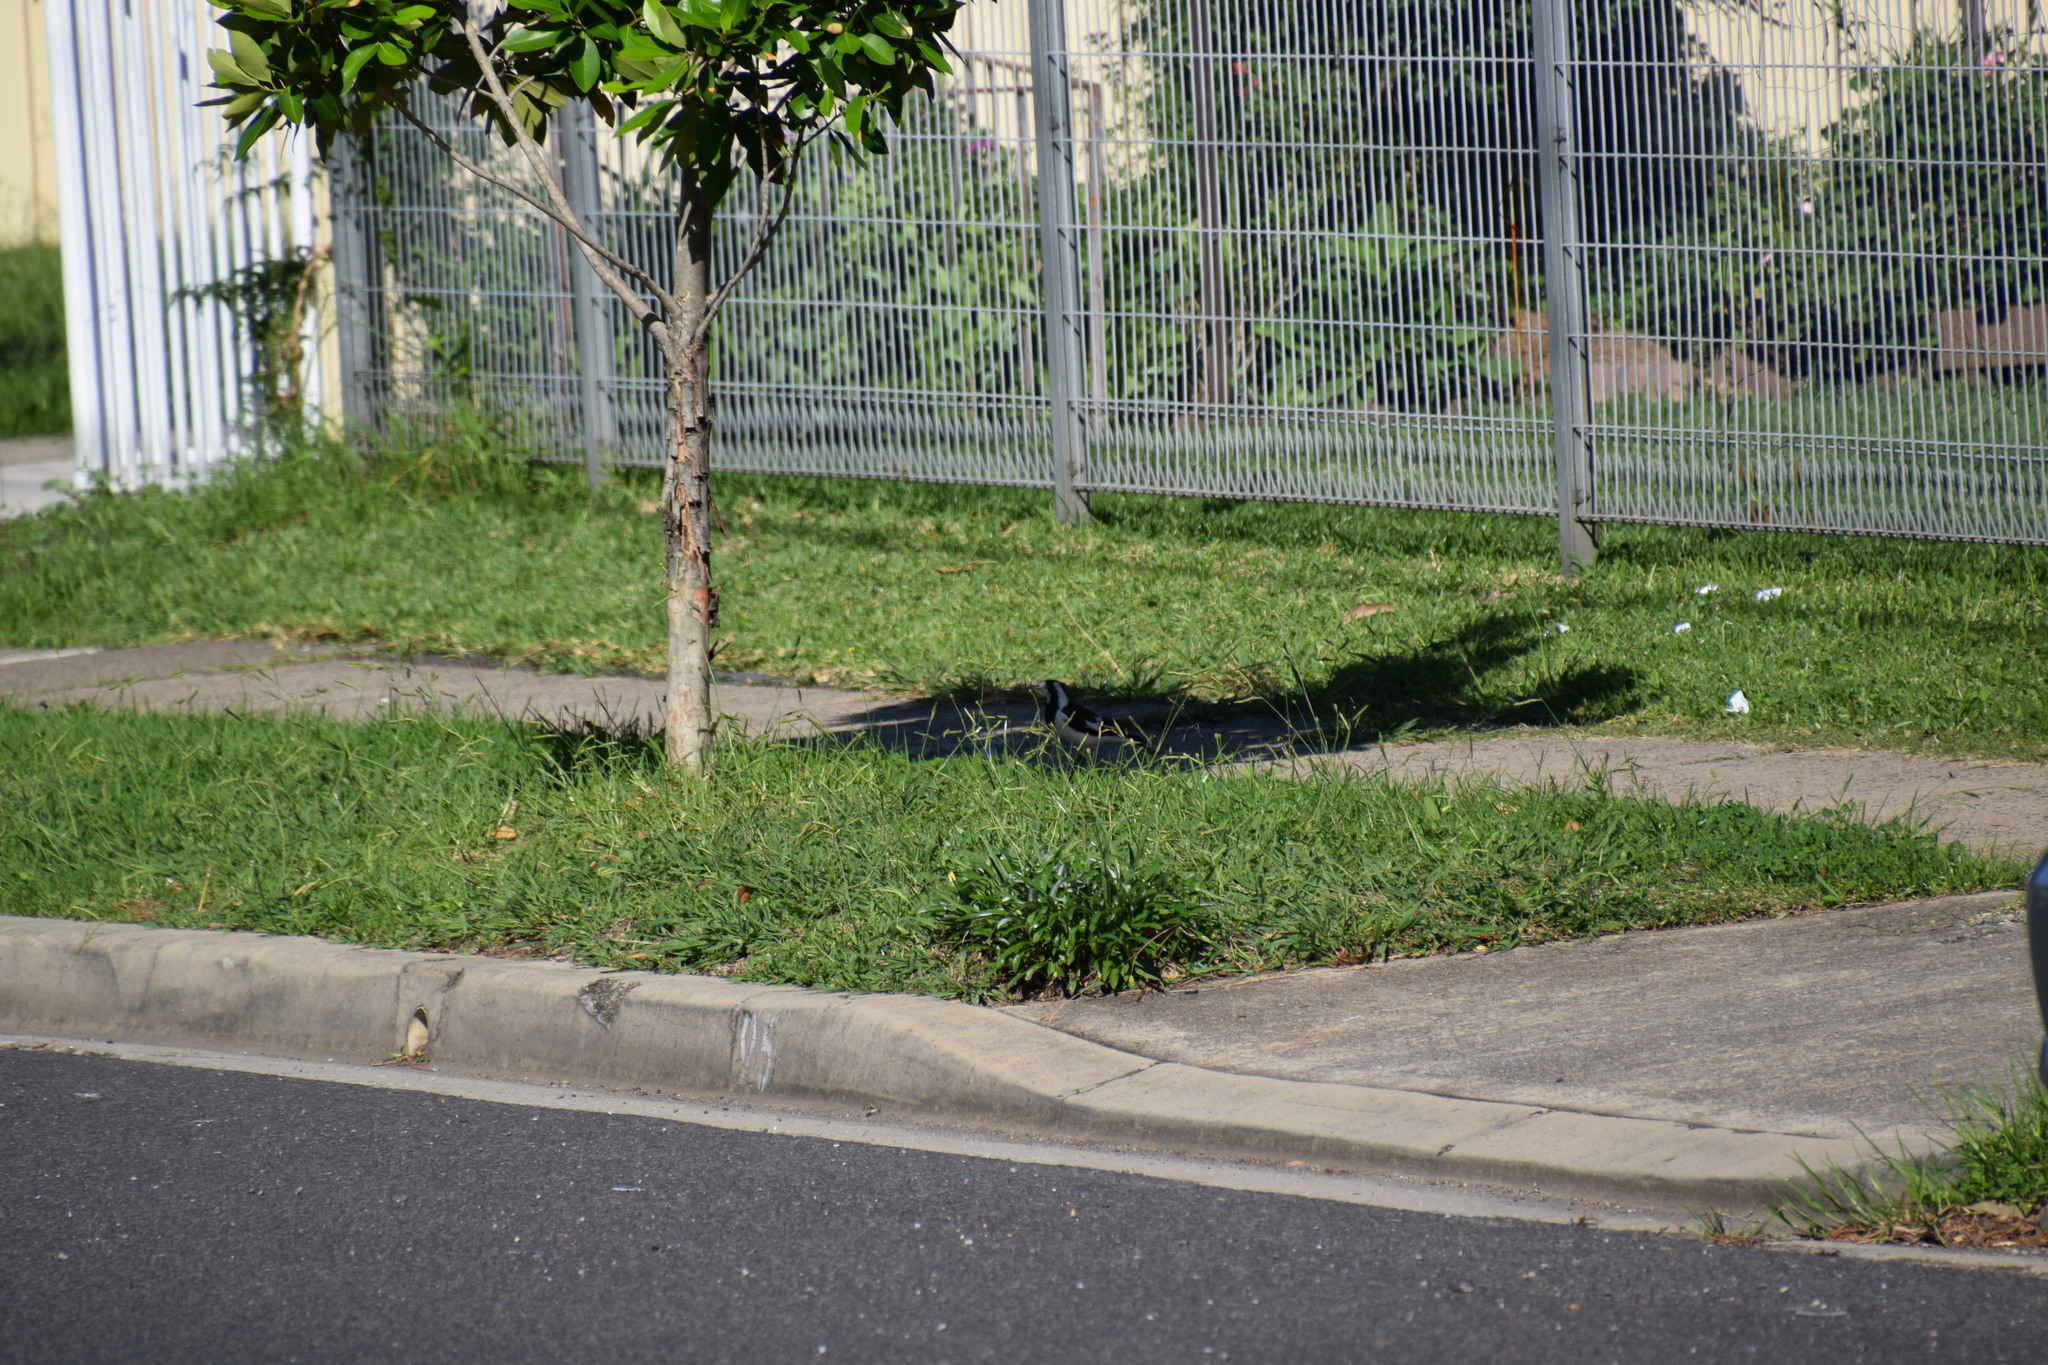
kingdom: Animalia
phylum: Chordata
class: Aves
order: Passeriformes
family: Monarchidae
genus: Grallina
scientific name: Grallina cyanoleuca
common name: Magpie-lark
